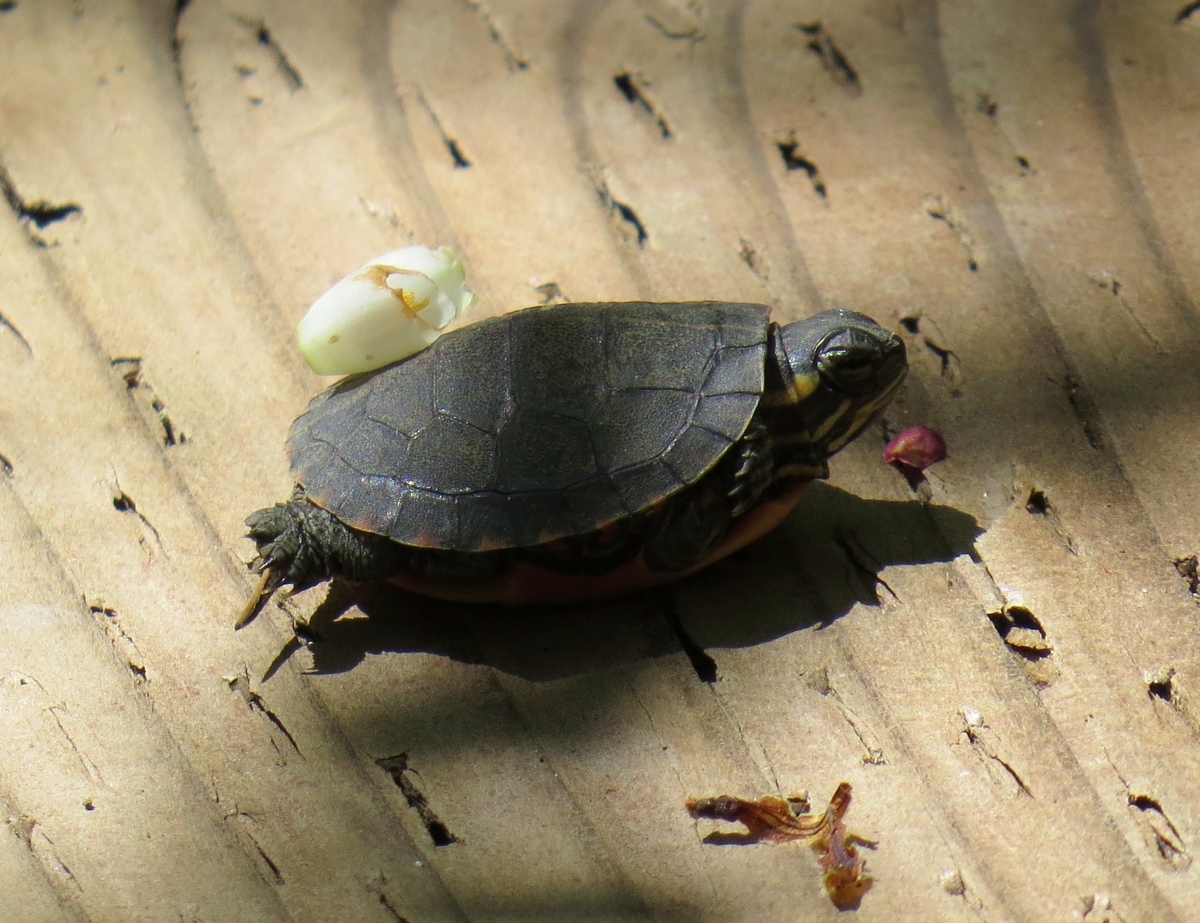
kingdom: Animalia
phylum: Chordata
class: Testudines
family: Emydidae
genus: Chrysemys
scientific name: Chrysemys picta
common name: Painted turtle
